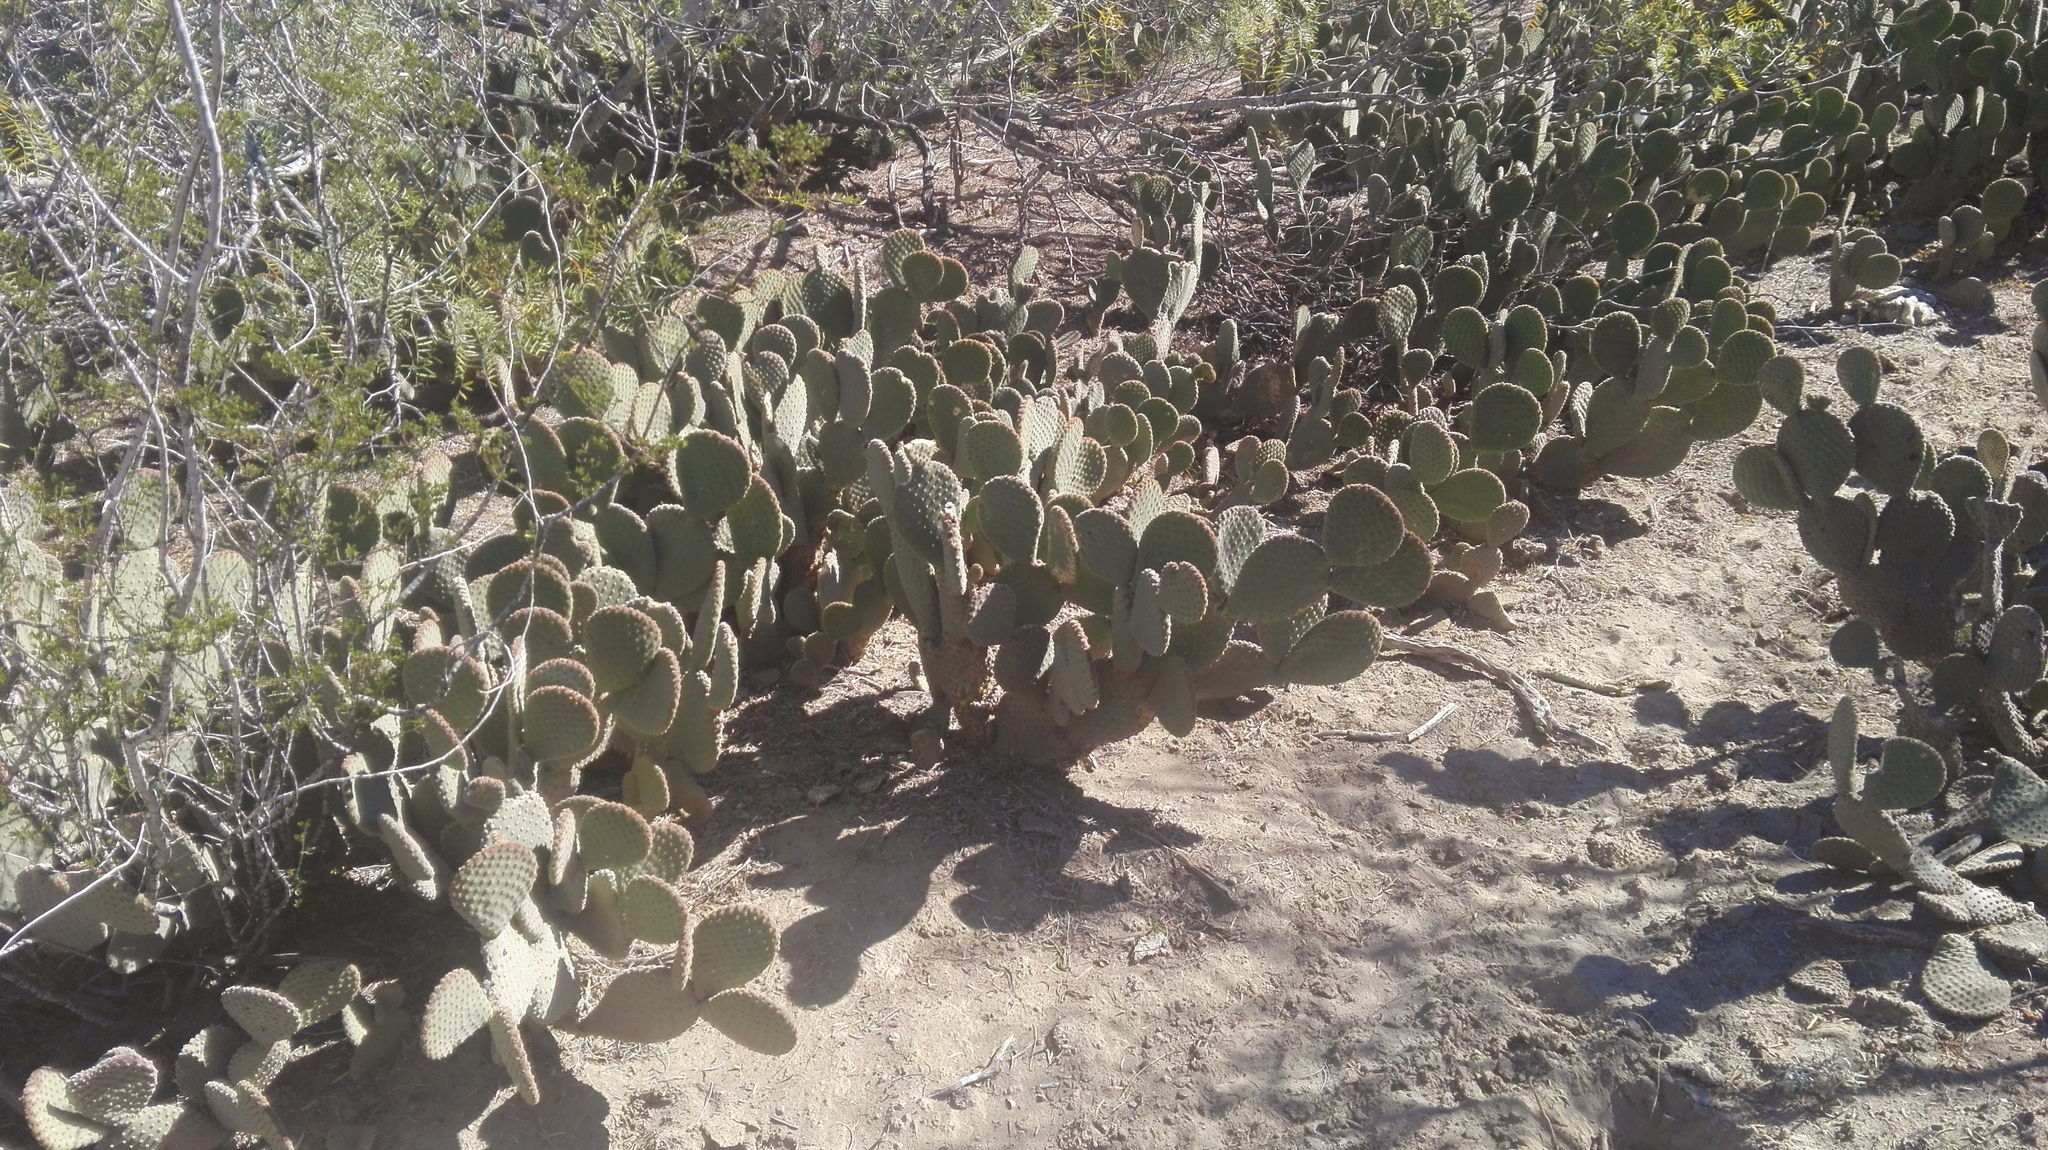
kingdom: Plantae
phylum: Tracheophyta
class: Magnoliopsida
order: Caryophyllales
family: Cactaceae
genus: Opuntia
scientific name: Opuntia microdasys
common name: Angel's-wings
